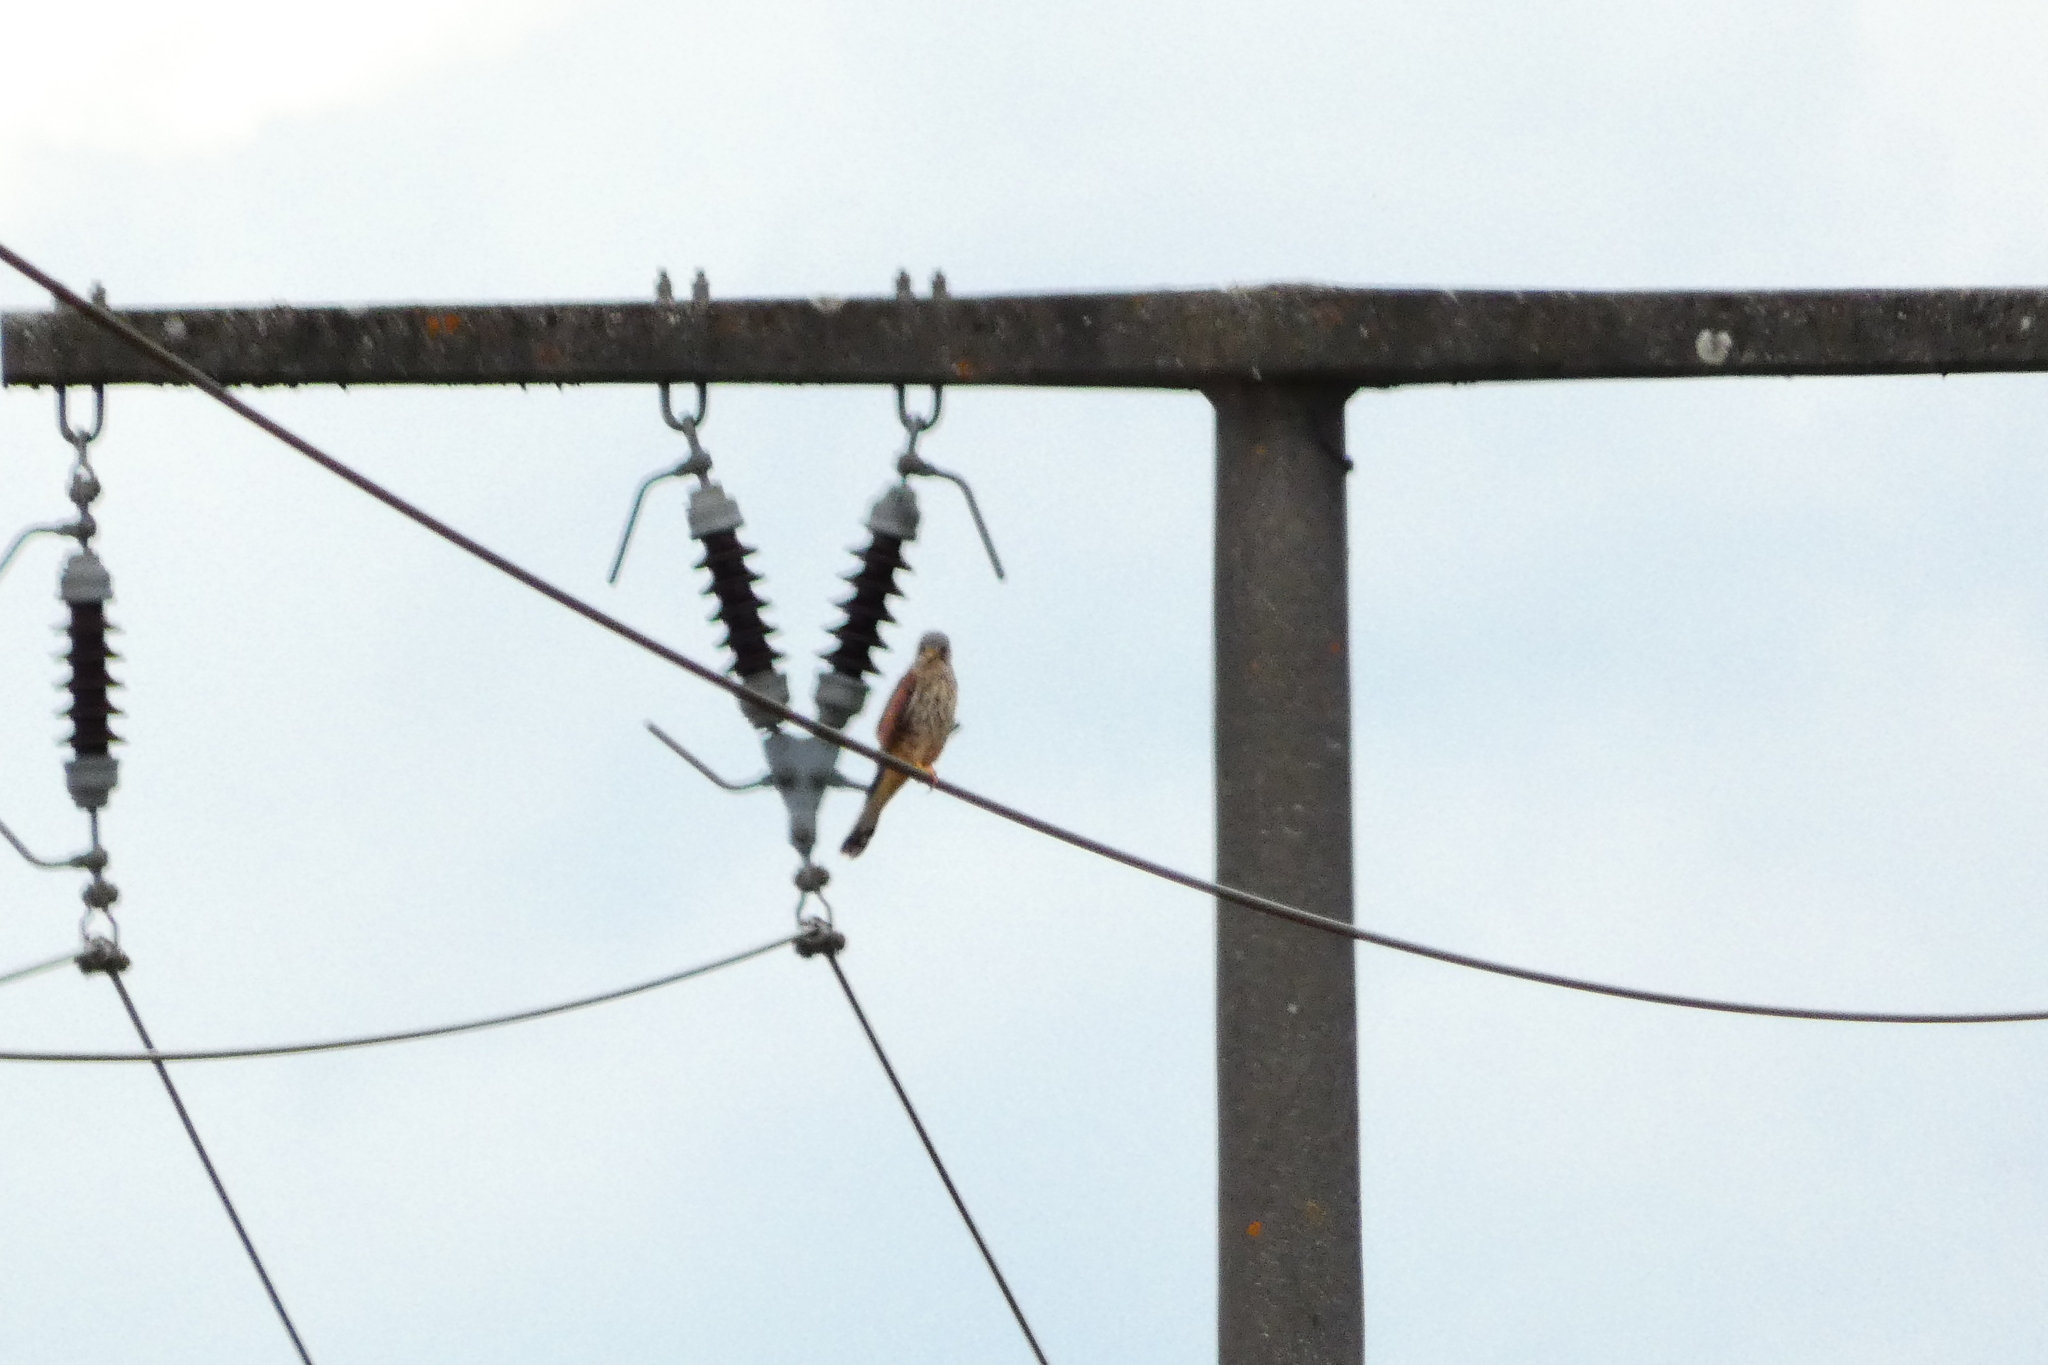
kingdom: Animalia
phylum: Chordata
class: Aves
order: Falconiformes
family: Falconidae
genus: Falco
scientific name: Falco tinnunculus
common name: Common kestrel
